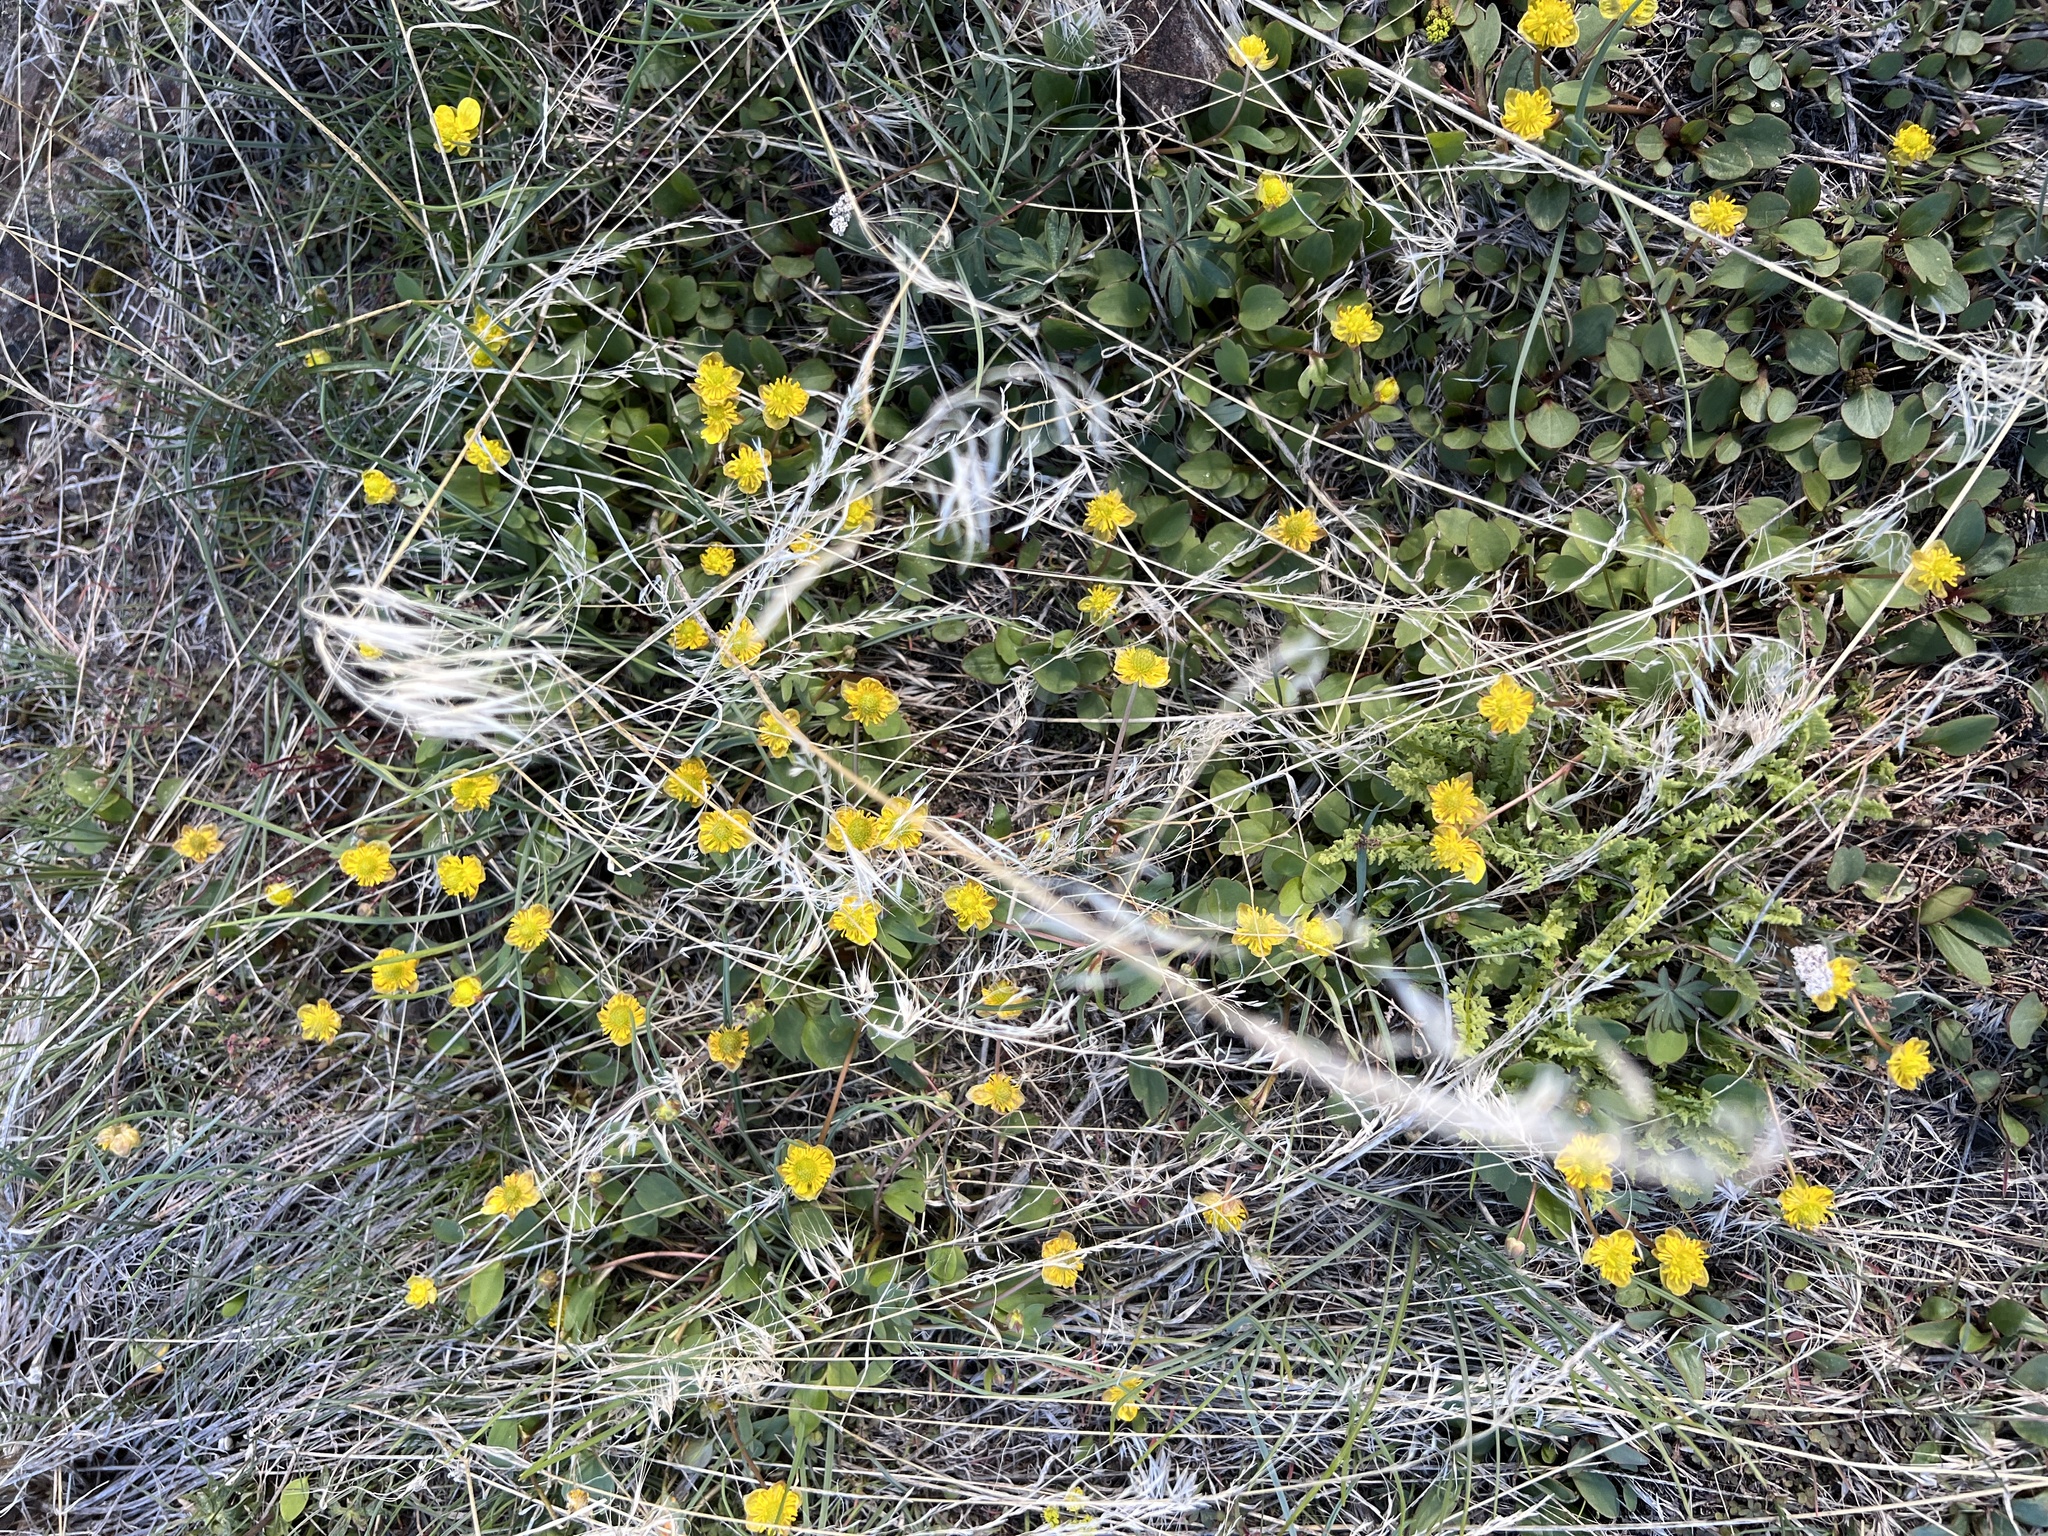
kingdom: Plantae
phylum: Tracheophyta
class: Magnoliopsida
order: Ranunculales
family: Ranunculaceae
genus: Ranunculus
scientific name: Ranunculus glaberrimus
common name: Sagebrush buttercup
